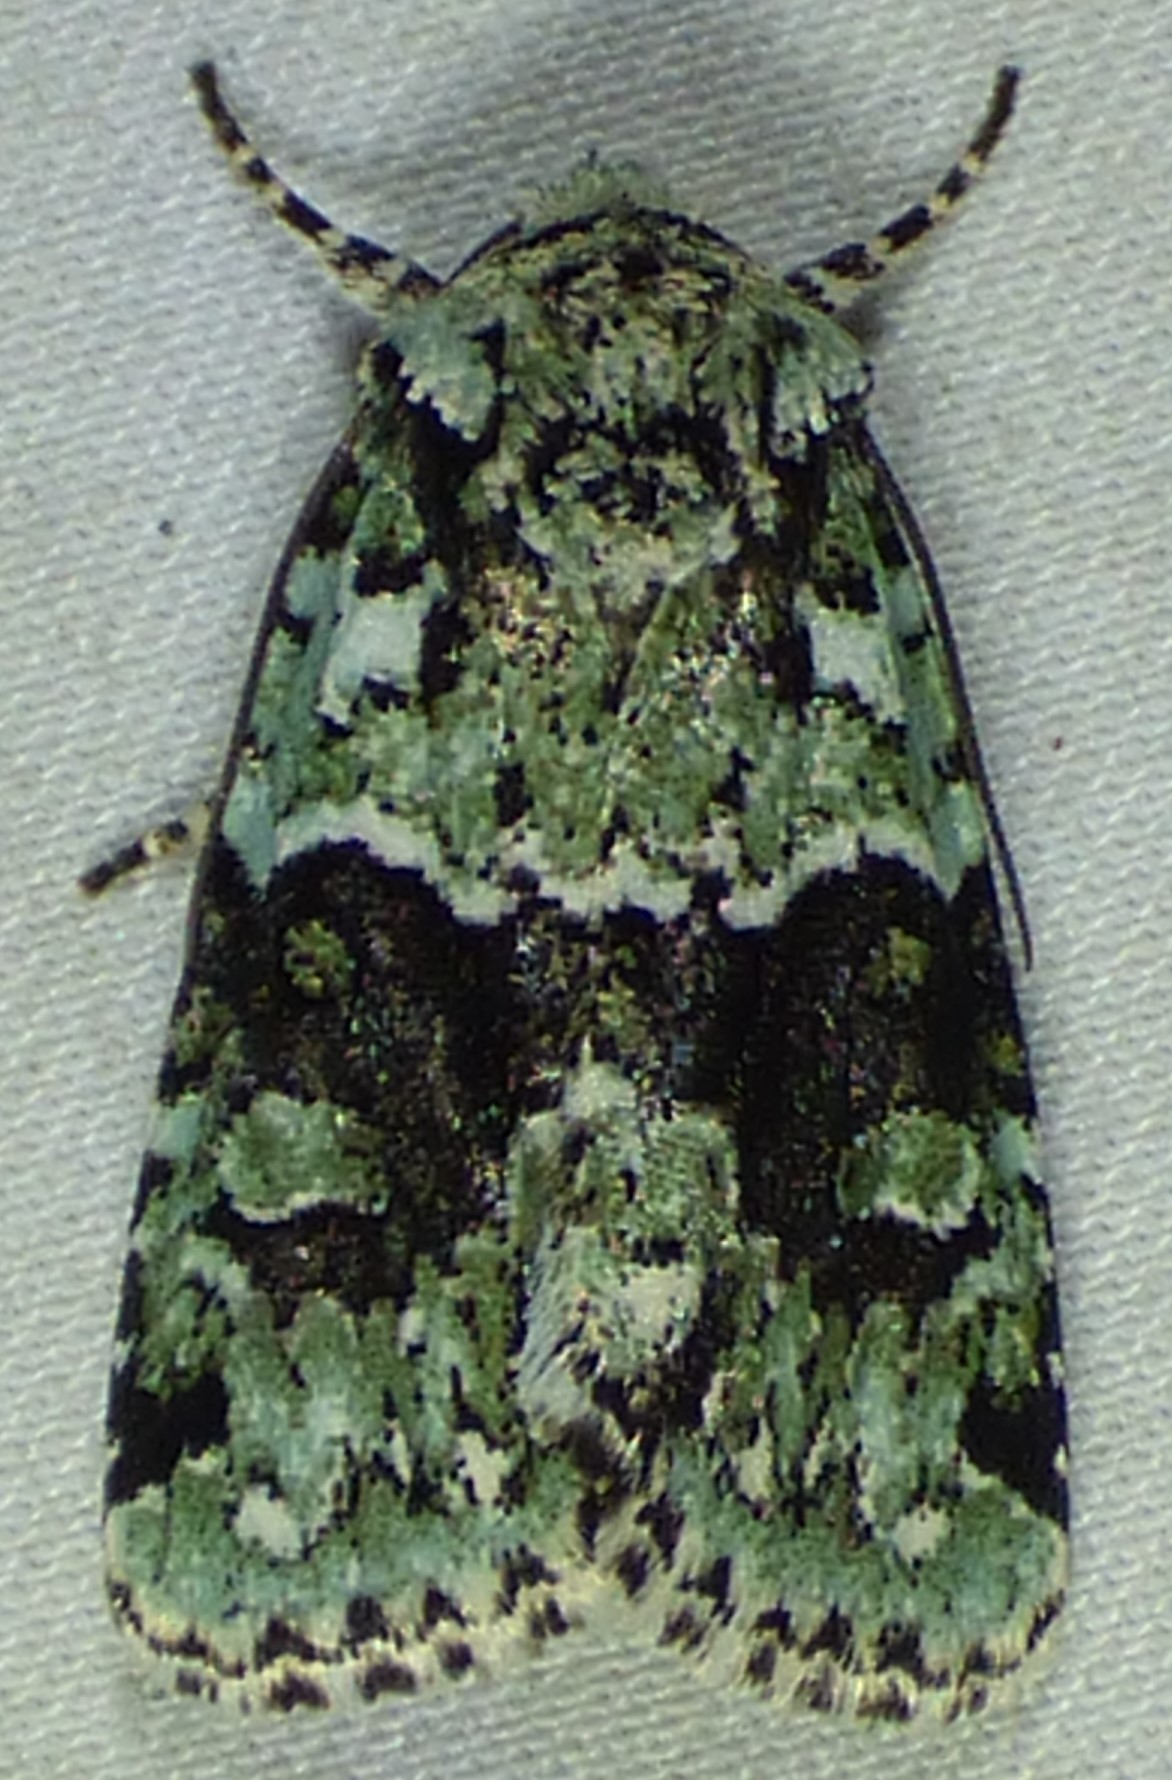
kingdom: Animalia
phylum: Arthropoda
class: Insecta
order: Lepidoptera
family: Noctuidae
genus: Lacinipolia
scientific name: Lacinipolia implicata
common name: Implicit arches
